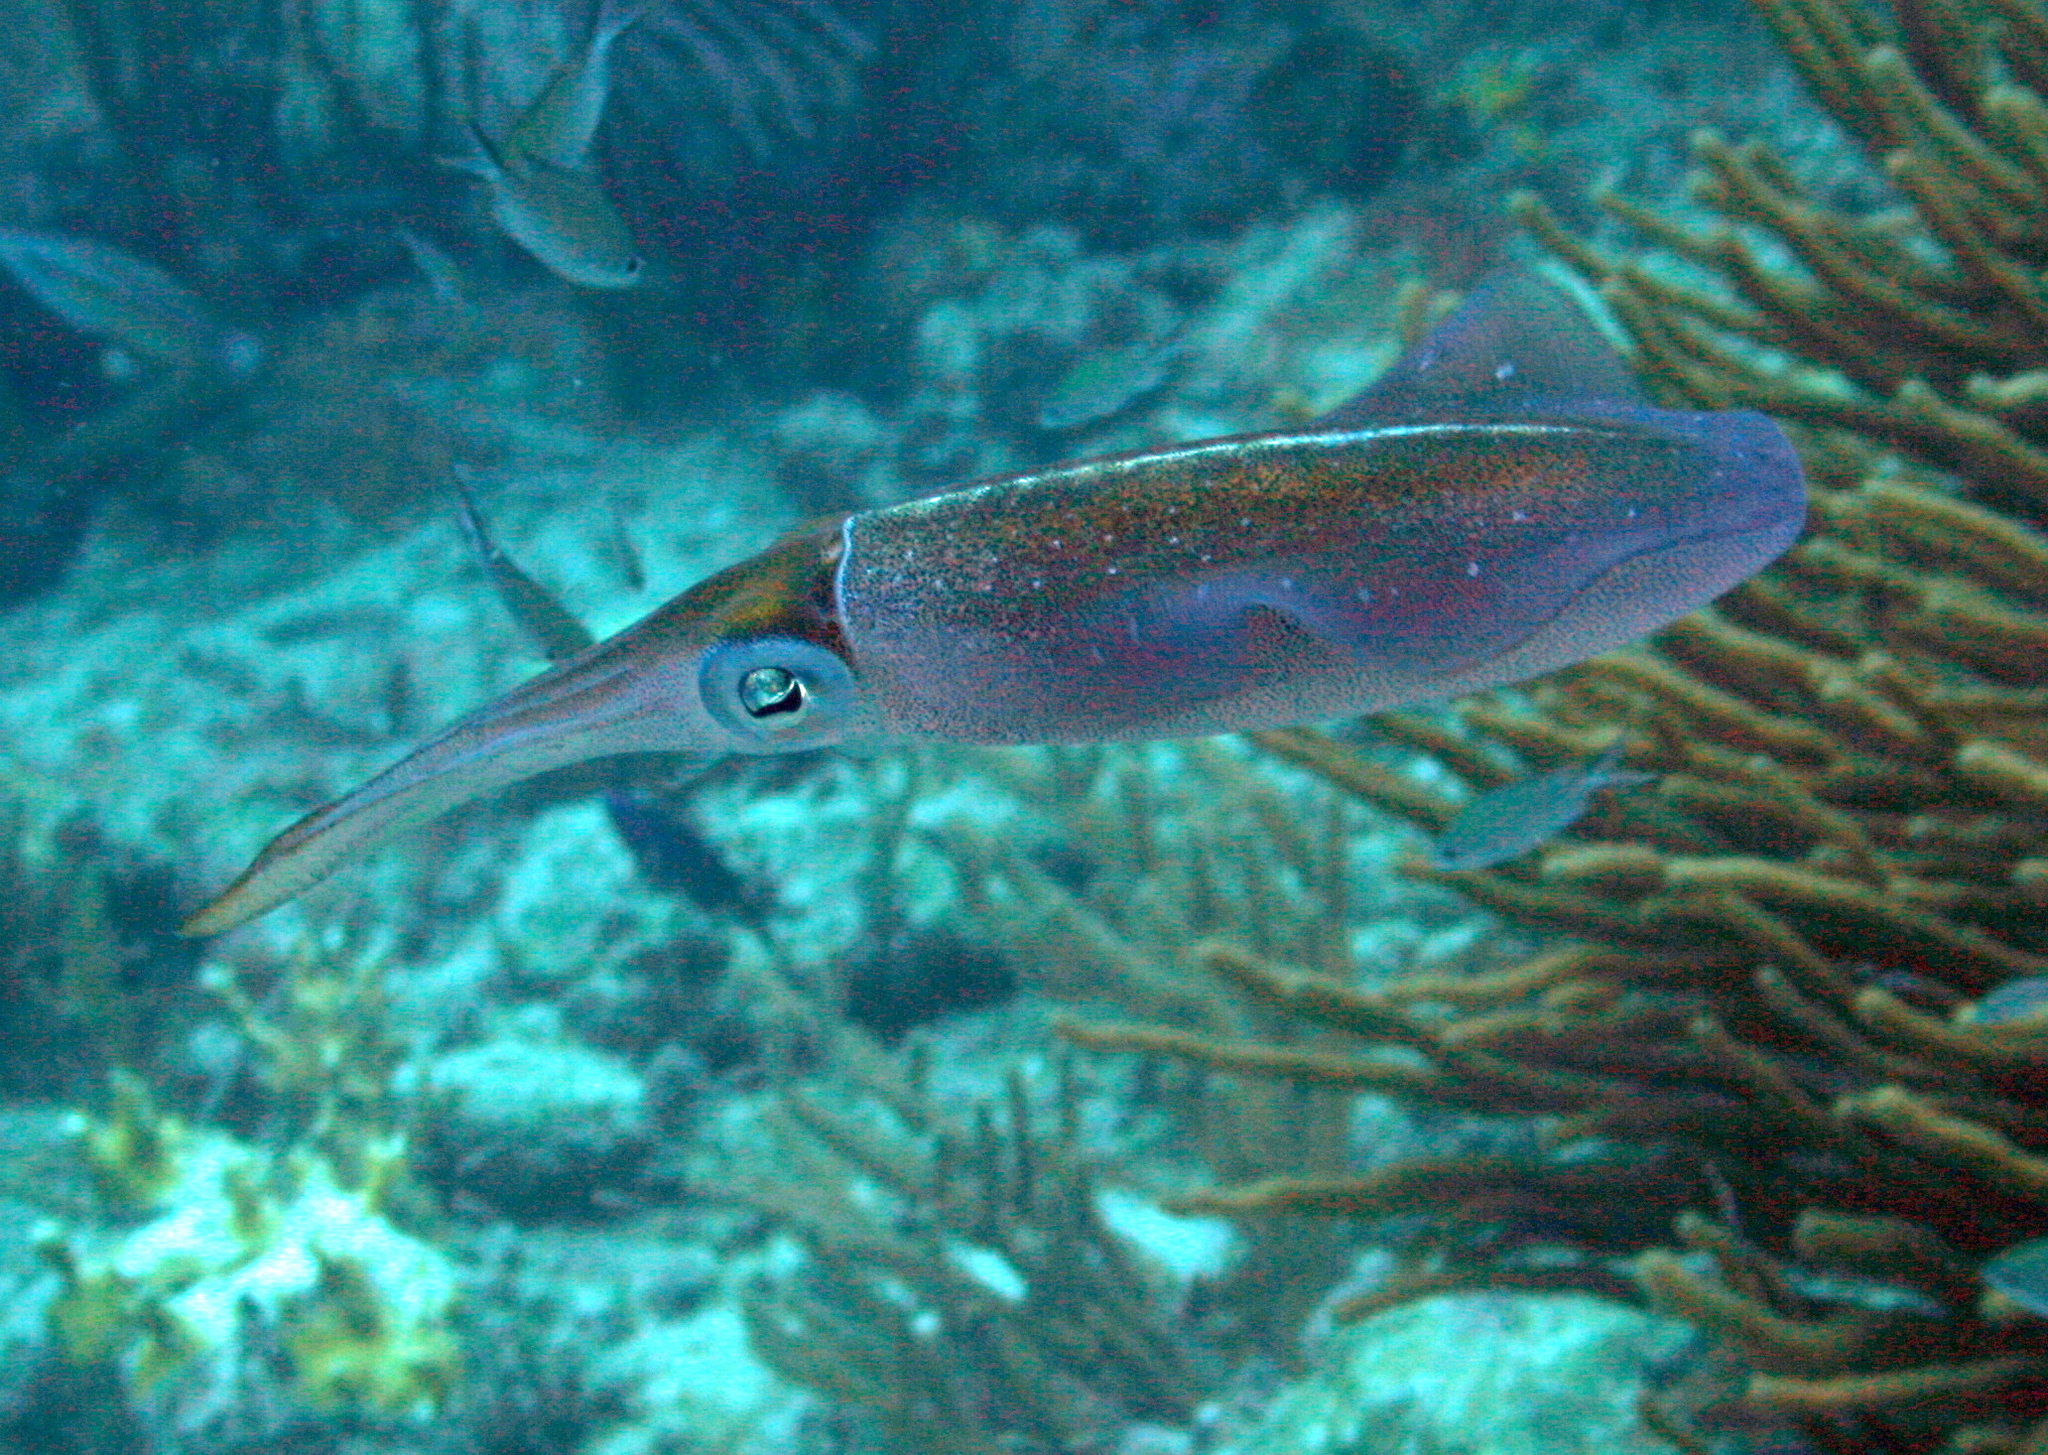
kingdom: Animalia
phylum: Mollusca
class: Cephalopoda
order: Myopsida
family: Loliginidae
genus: Sepioteuthis
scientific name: Sepioteuthis sepioidea
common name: Caribbean reef squid
